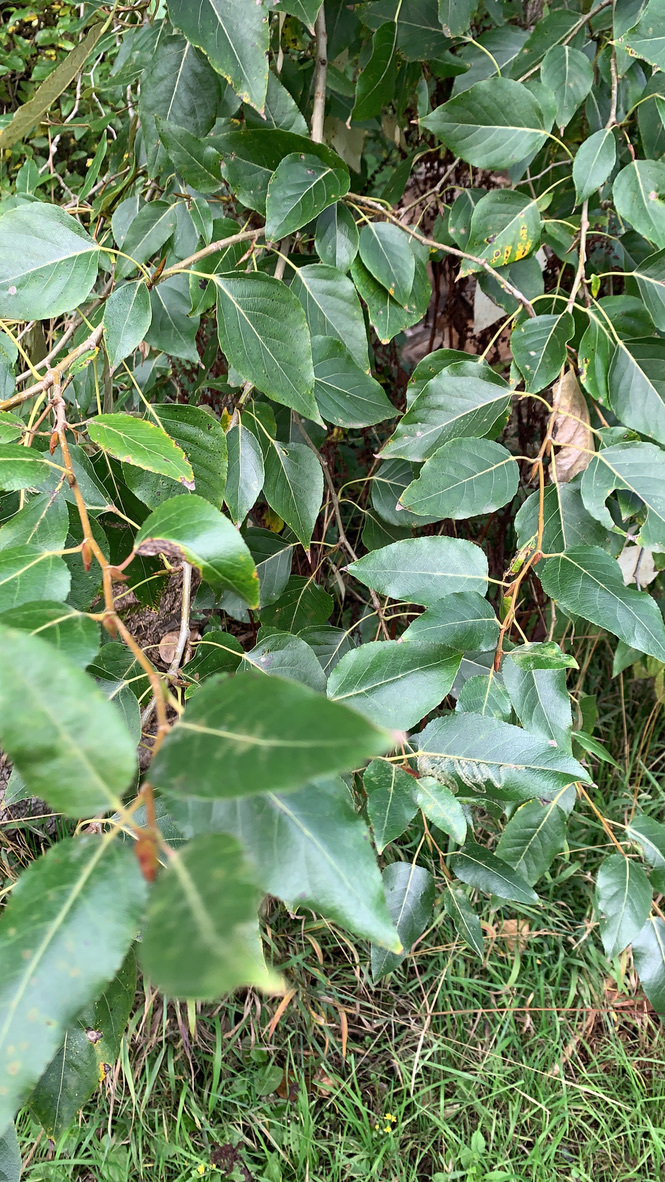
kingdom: Plantae
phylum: Tracheophyta
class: Magnoliopsida
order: Malpighiales
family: Salicaceae
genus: Populus
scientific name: Populus trichocarpa
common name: Black cottonwood
